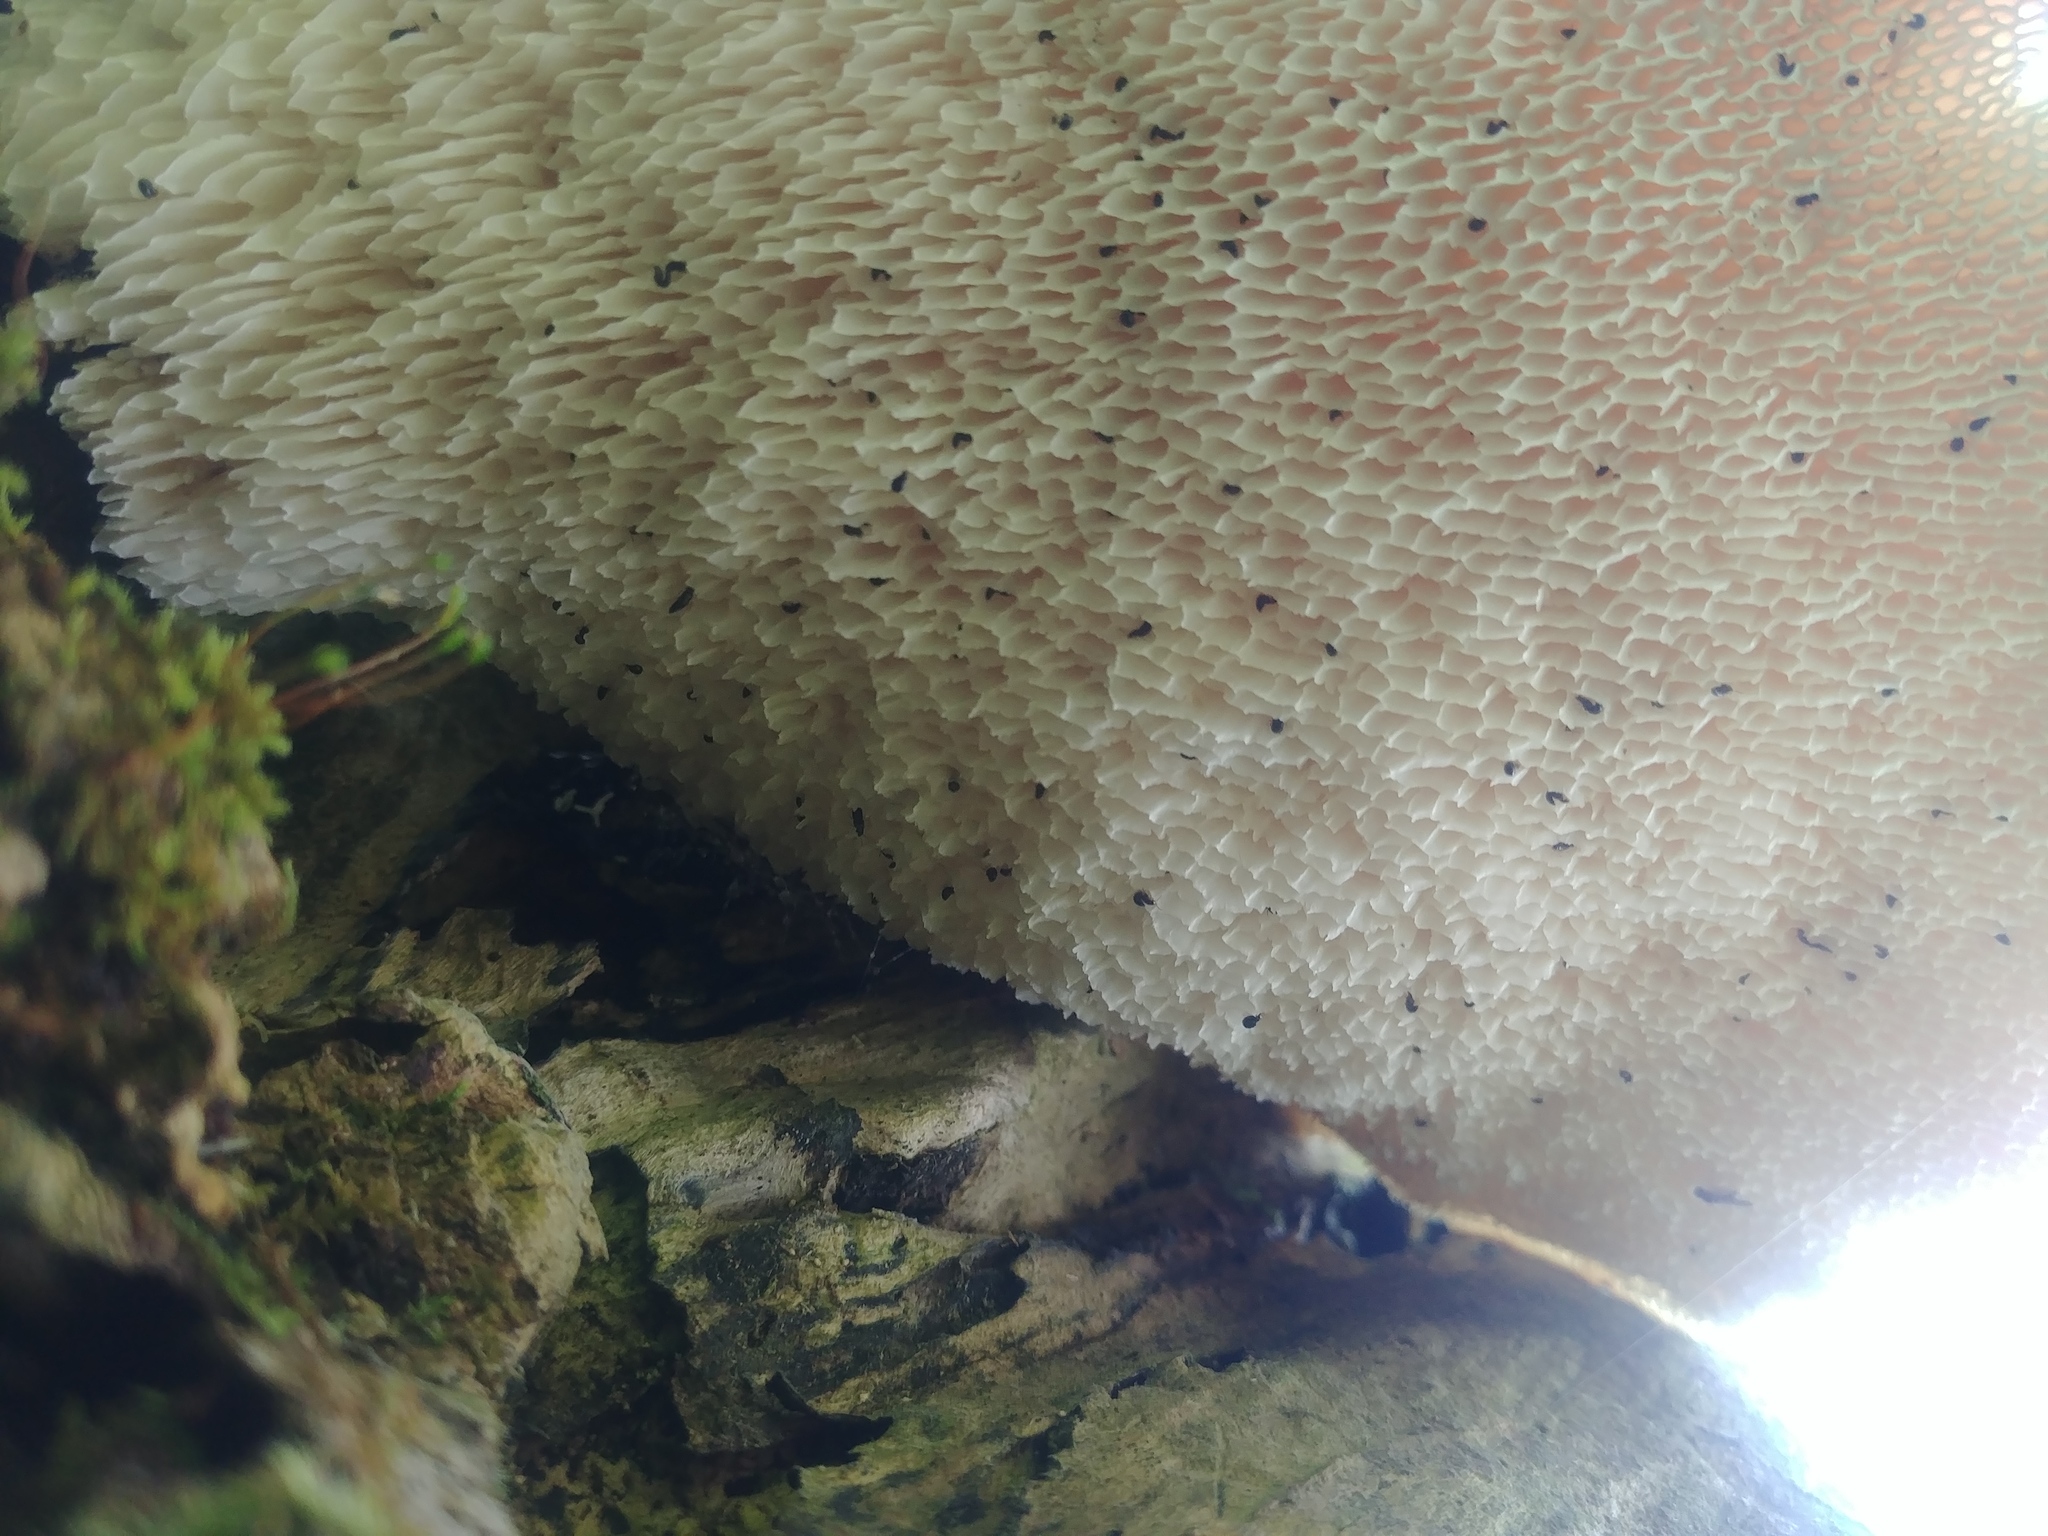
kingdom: Fungi
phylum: Basidiomycota
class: Agaricomycetes
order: Polyporales
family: Polyporaceae
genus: Cerioporus
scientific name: Cerioporus squamosus
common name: Dryad's saddle
